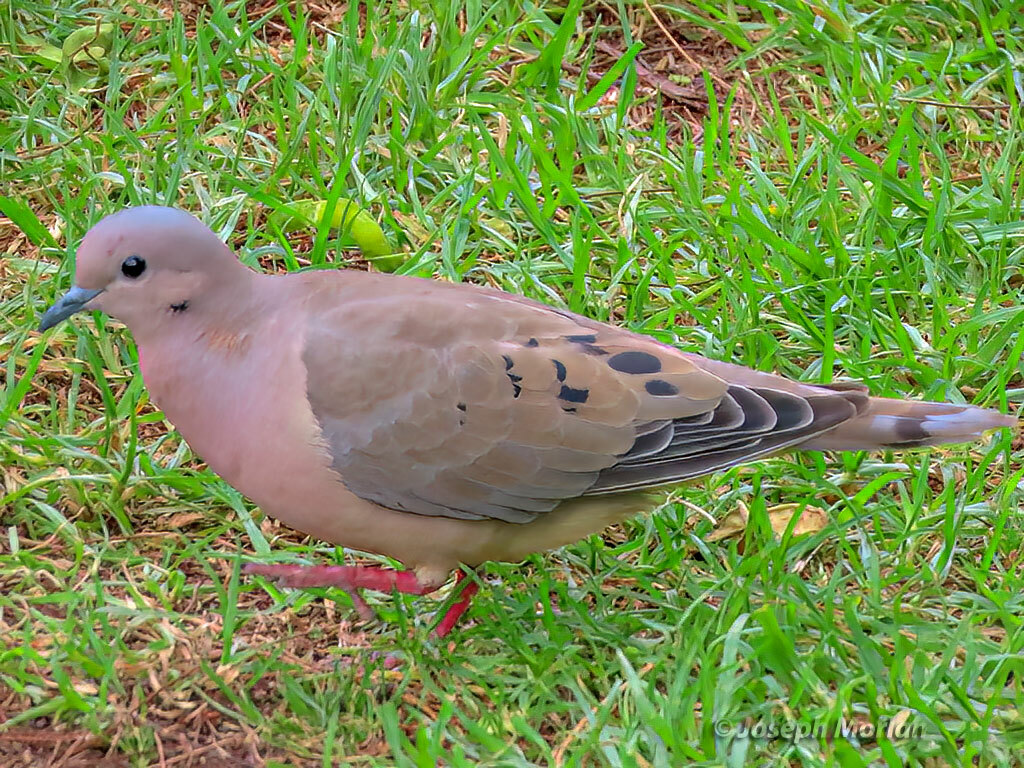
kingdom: Animalia
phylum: Chordata
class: Aves
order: Columbiformes
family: Columbidae
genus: Zenaida
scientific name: Zenaida auriculata
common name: Eared dove
